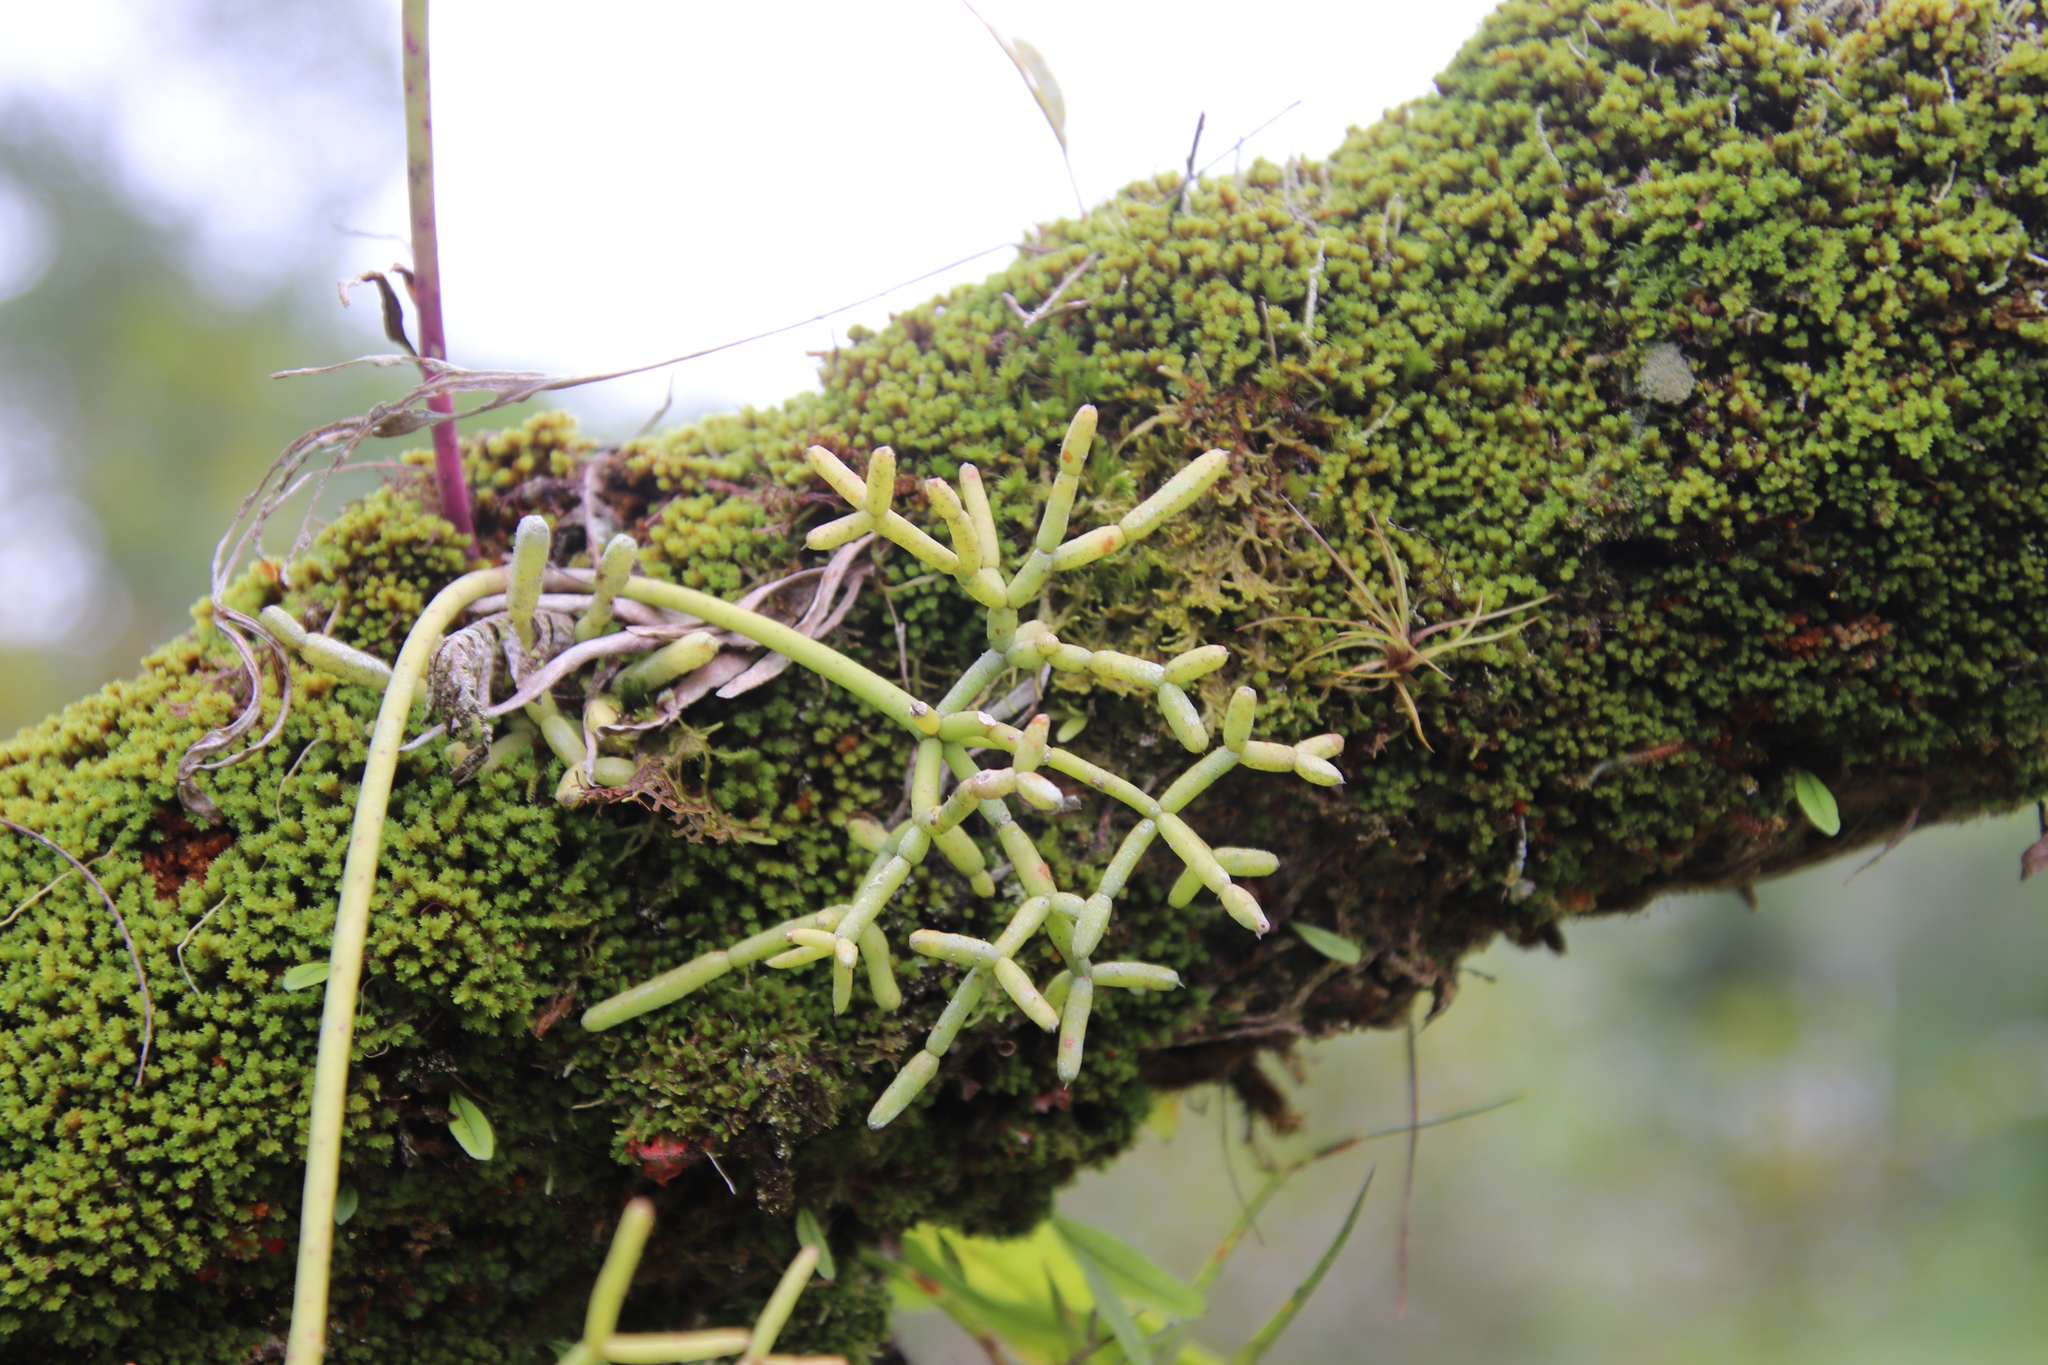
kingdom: Plantae
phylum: Tracheophyta
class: Magnoliopsida
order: Caryophyllales
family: Cactaceae
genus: Rhipsalis
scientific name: Rhipsalis teres
